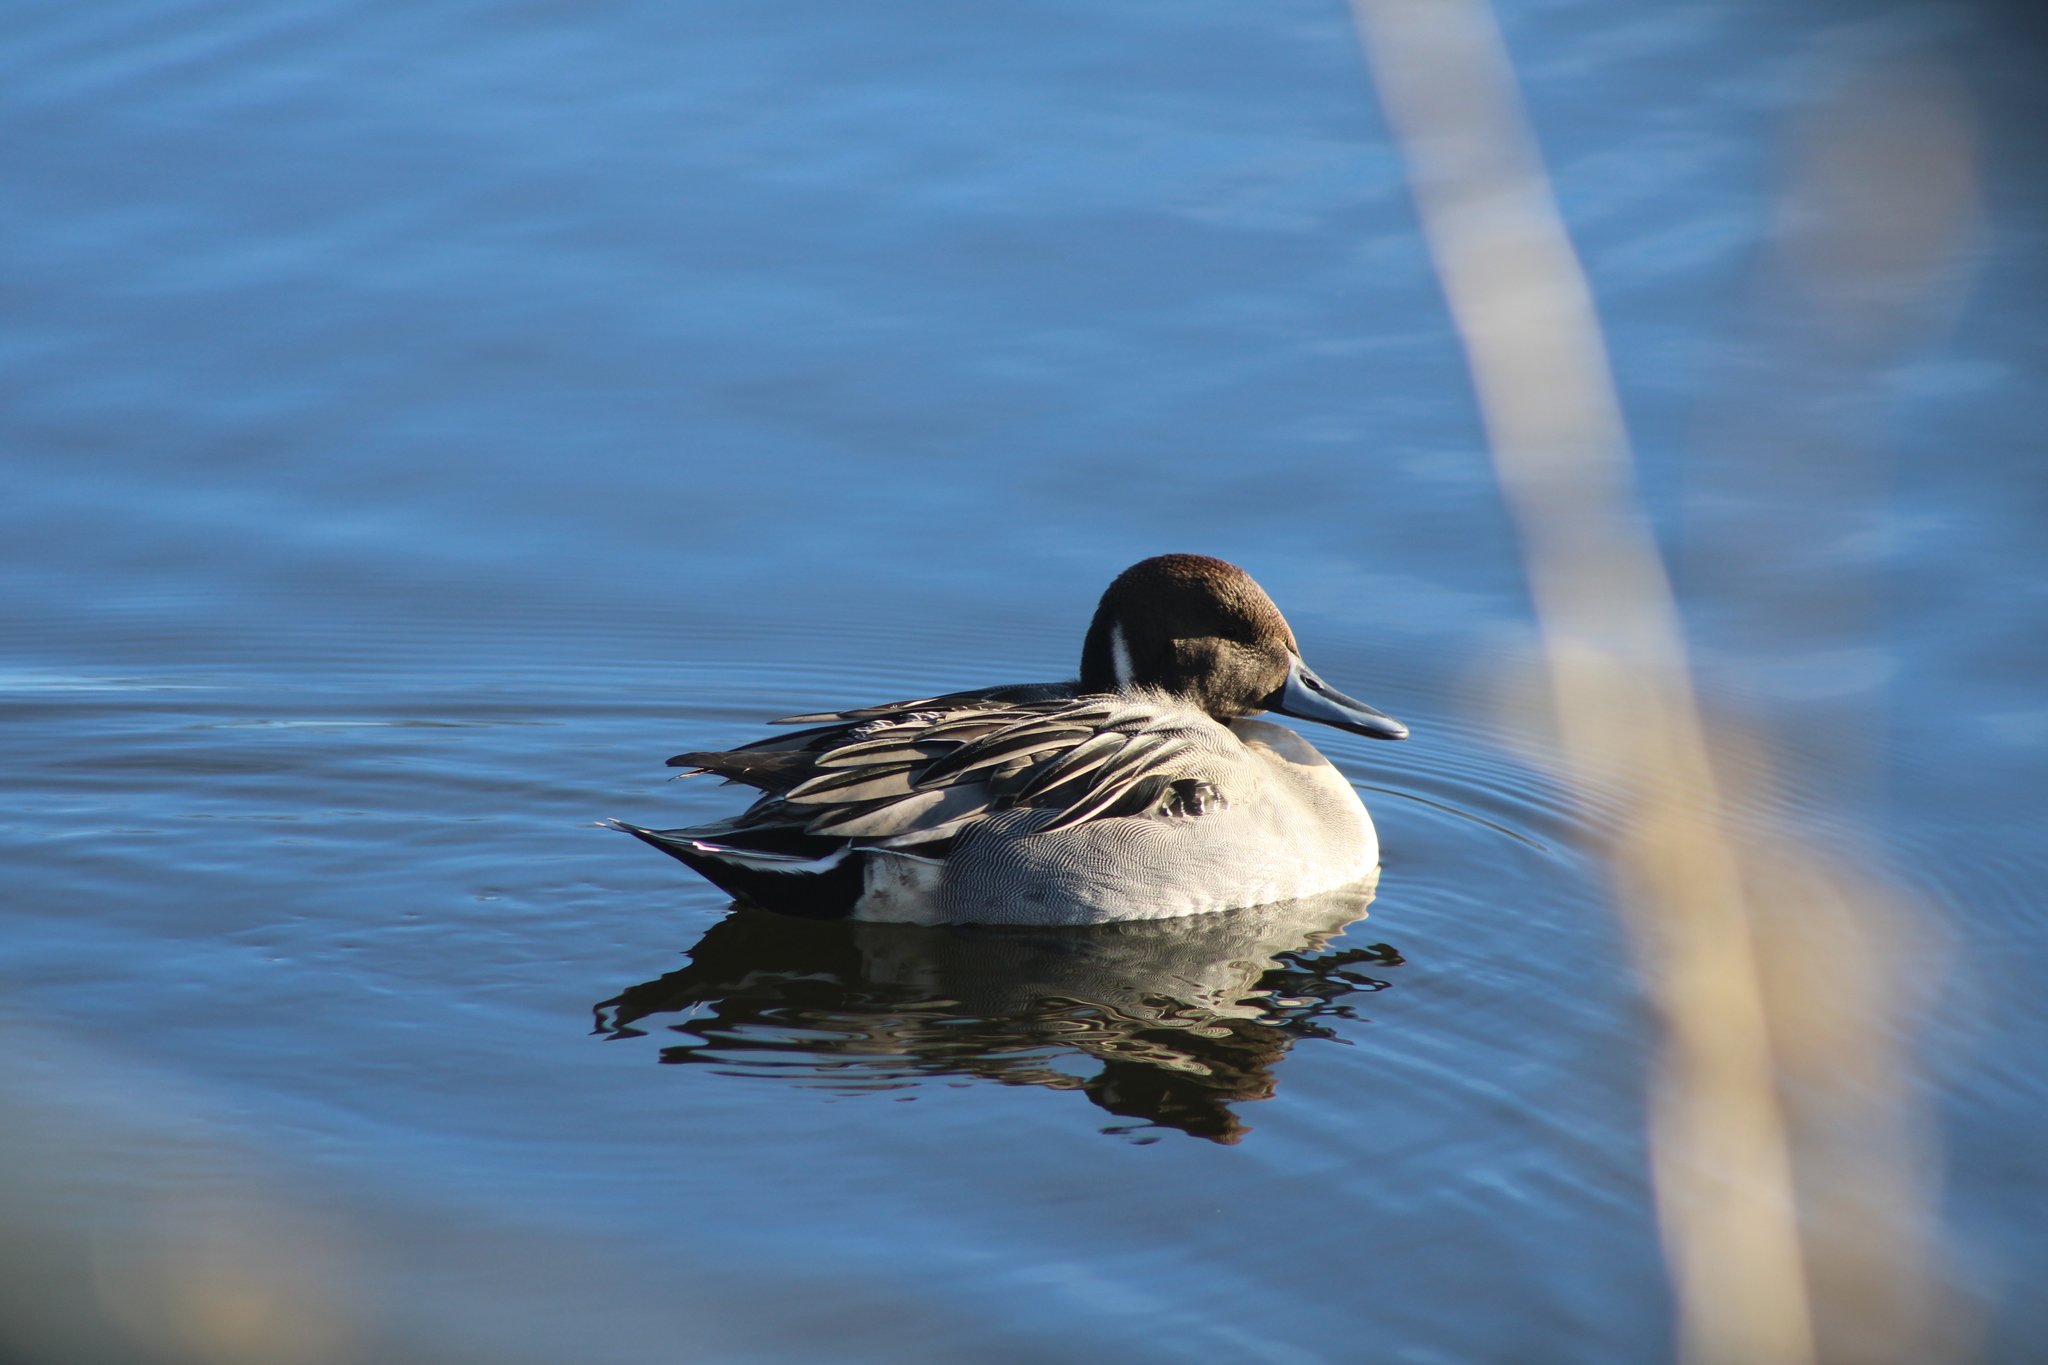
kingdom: Animalia
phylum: Chordata
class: Aves
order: Anseriformes
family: Anatidae
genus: Anas
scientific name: Anas acuta
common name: Northern pintail
